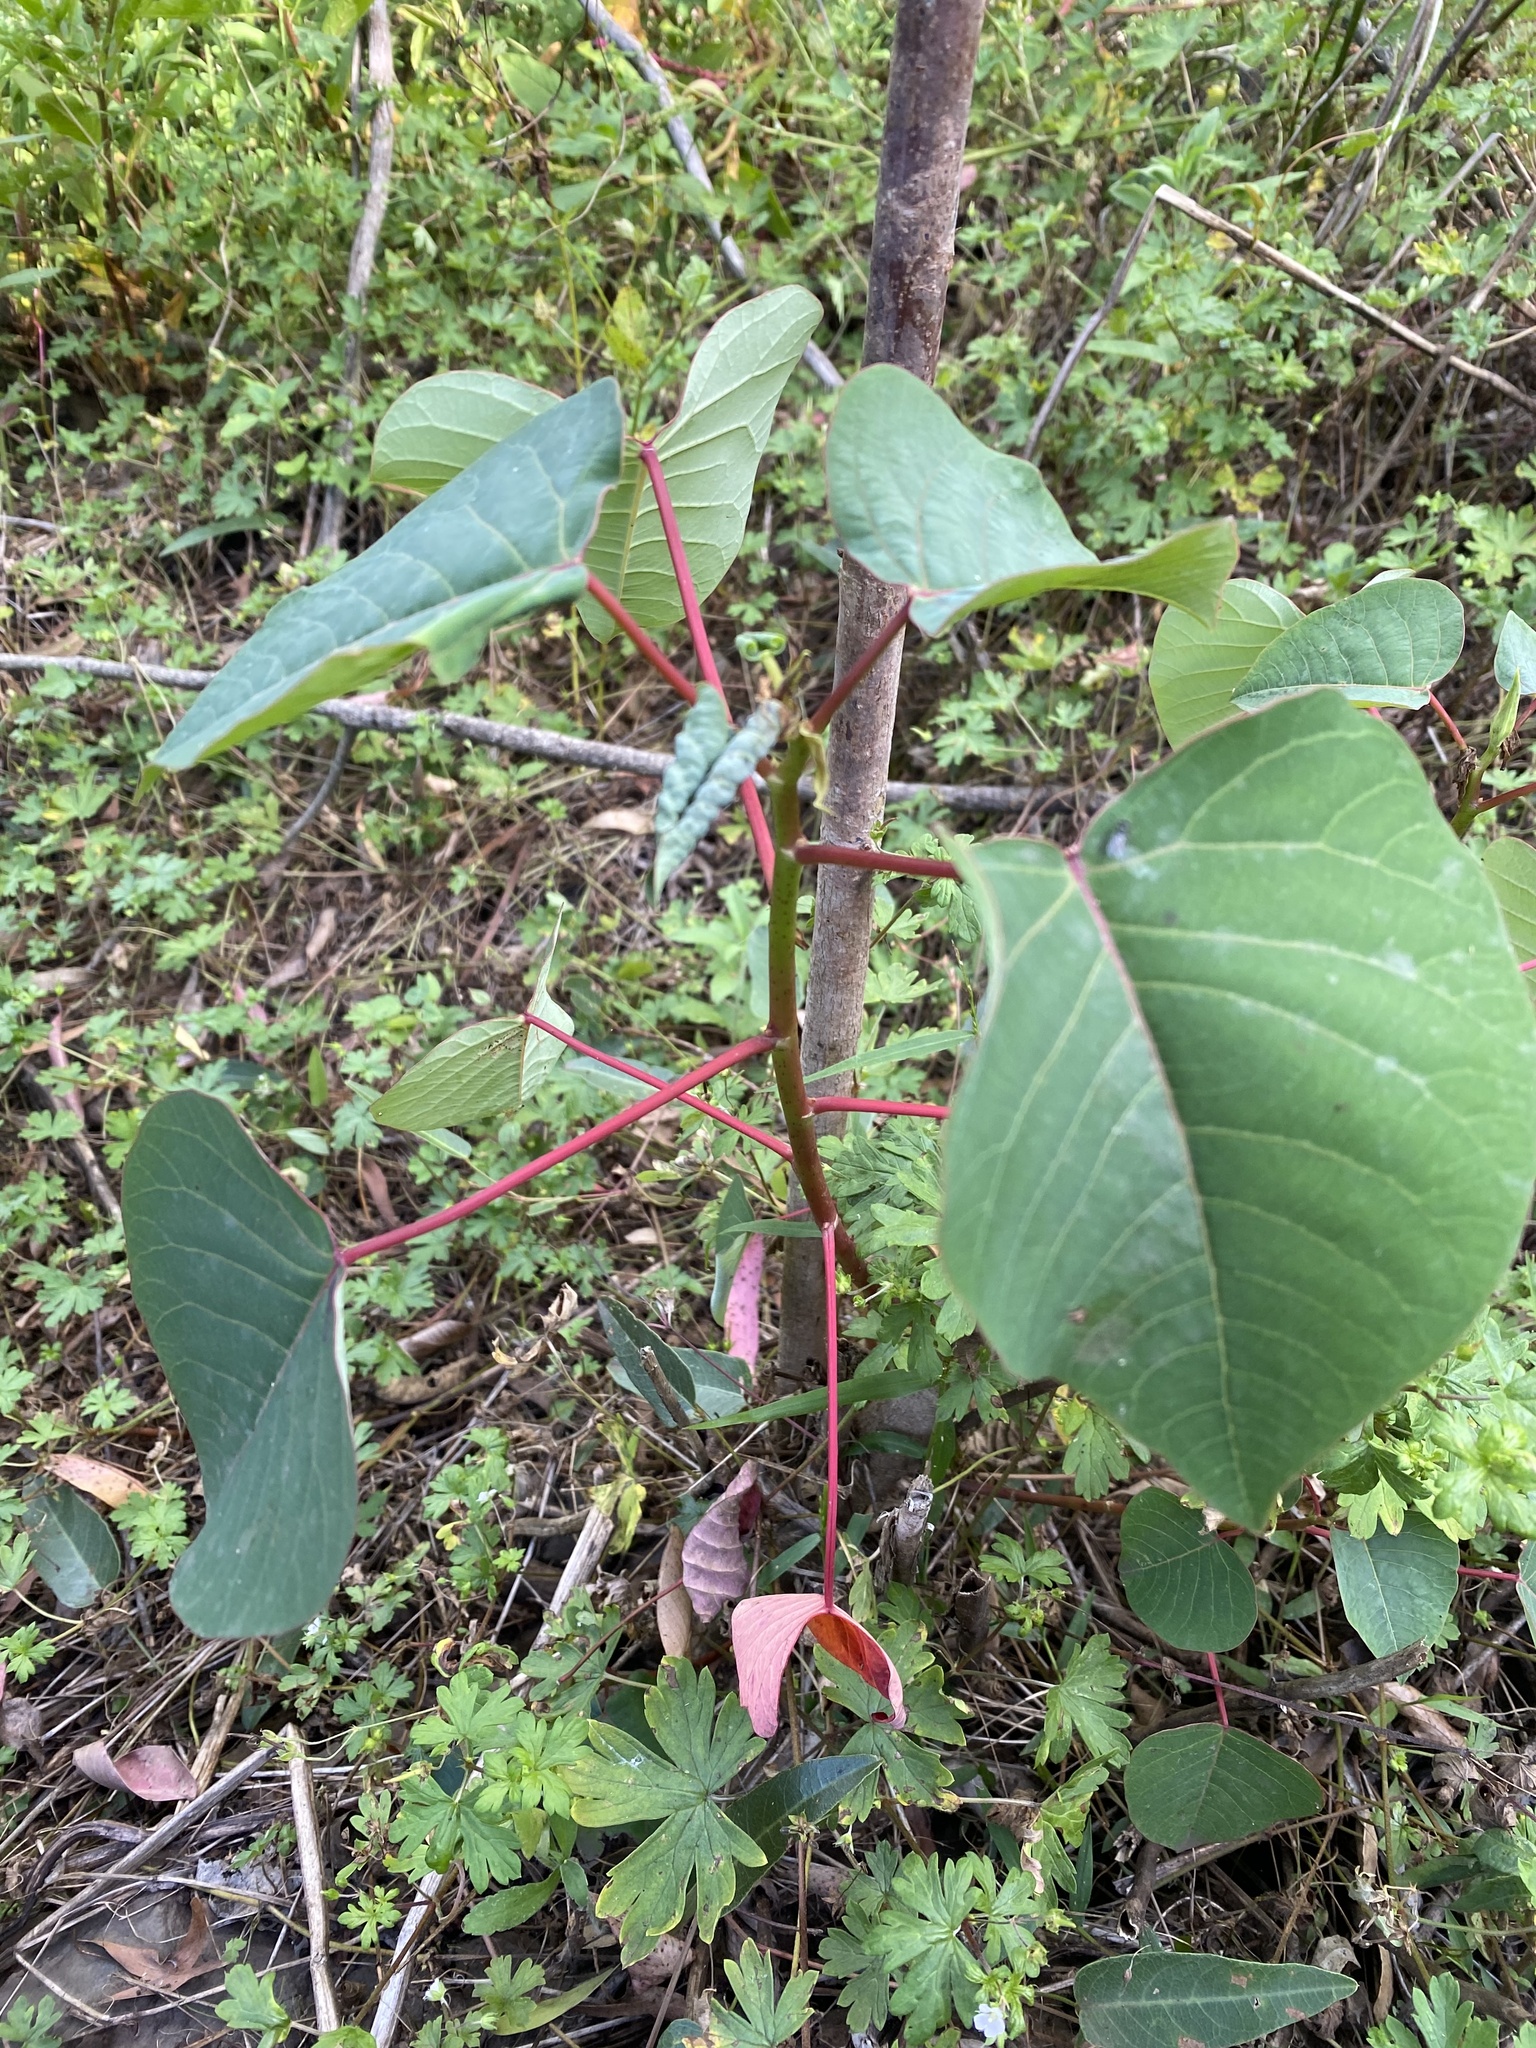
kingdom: Plantae
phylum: Tracheophyta
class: Magnoliopsida
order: Malpighiales
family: Euphorbiaceae
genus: Homalanthus
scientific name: Homalanthus populifolius
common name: Queensland poplar
